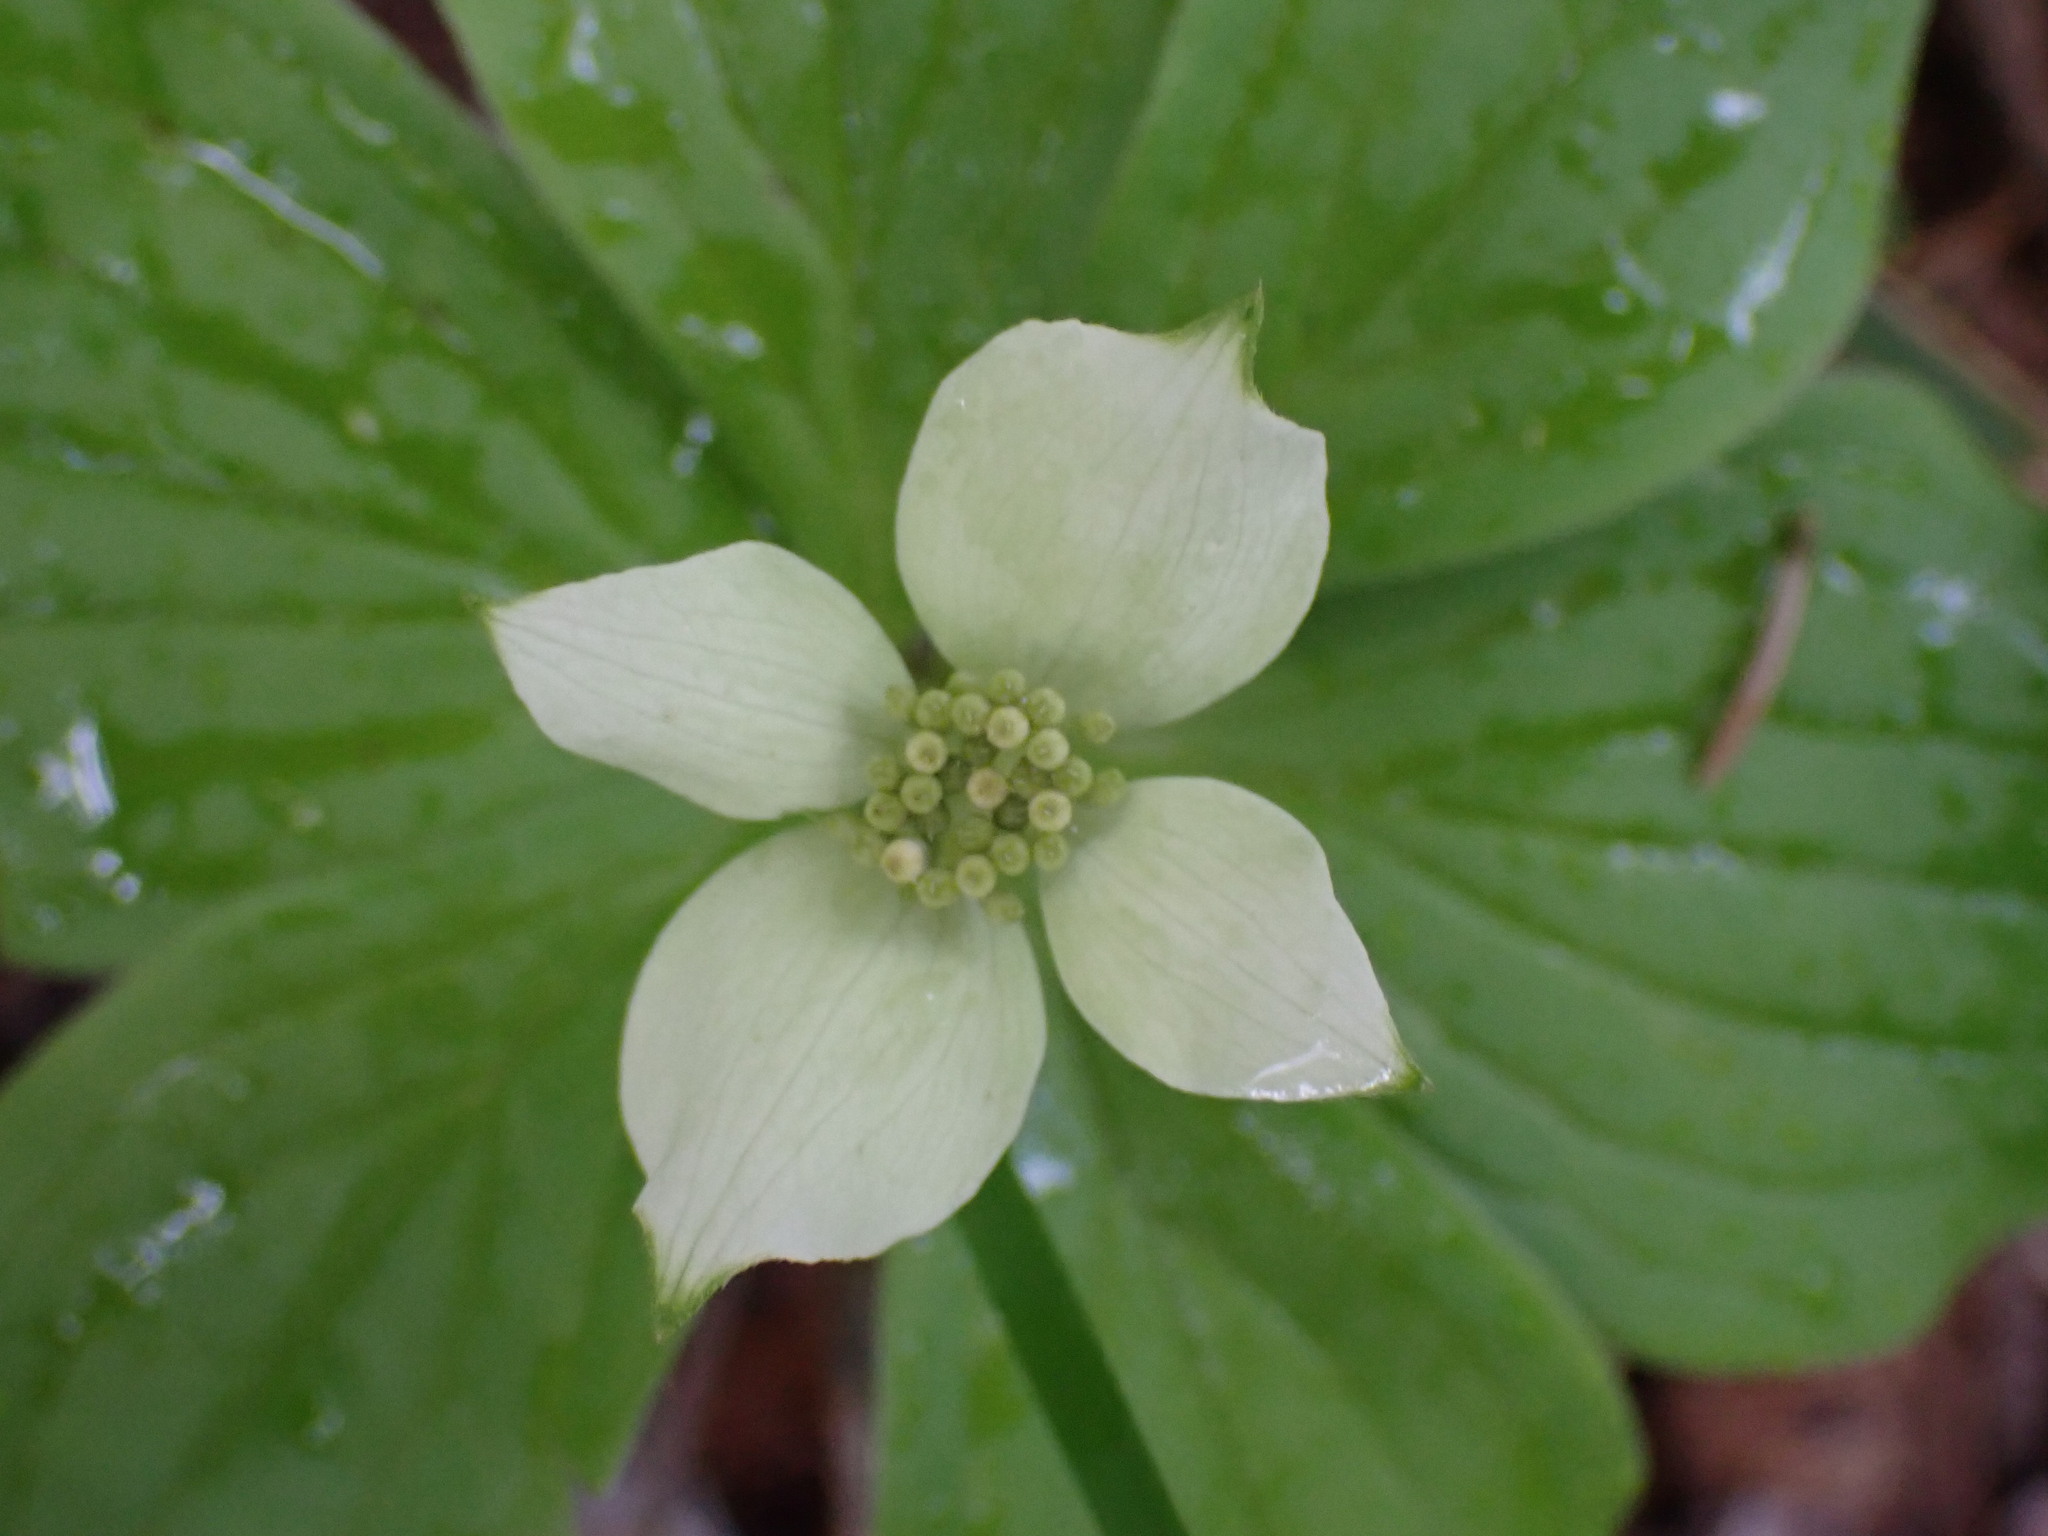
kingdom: Plantae
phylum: Tracheophyta
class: Magnoliopsida
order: Cornales
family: Cornaceae
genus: Cornus
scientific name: Cornus canadensis
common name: Creeping dogwood
